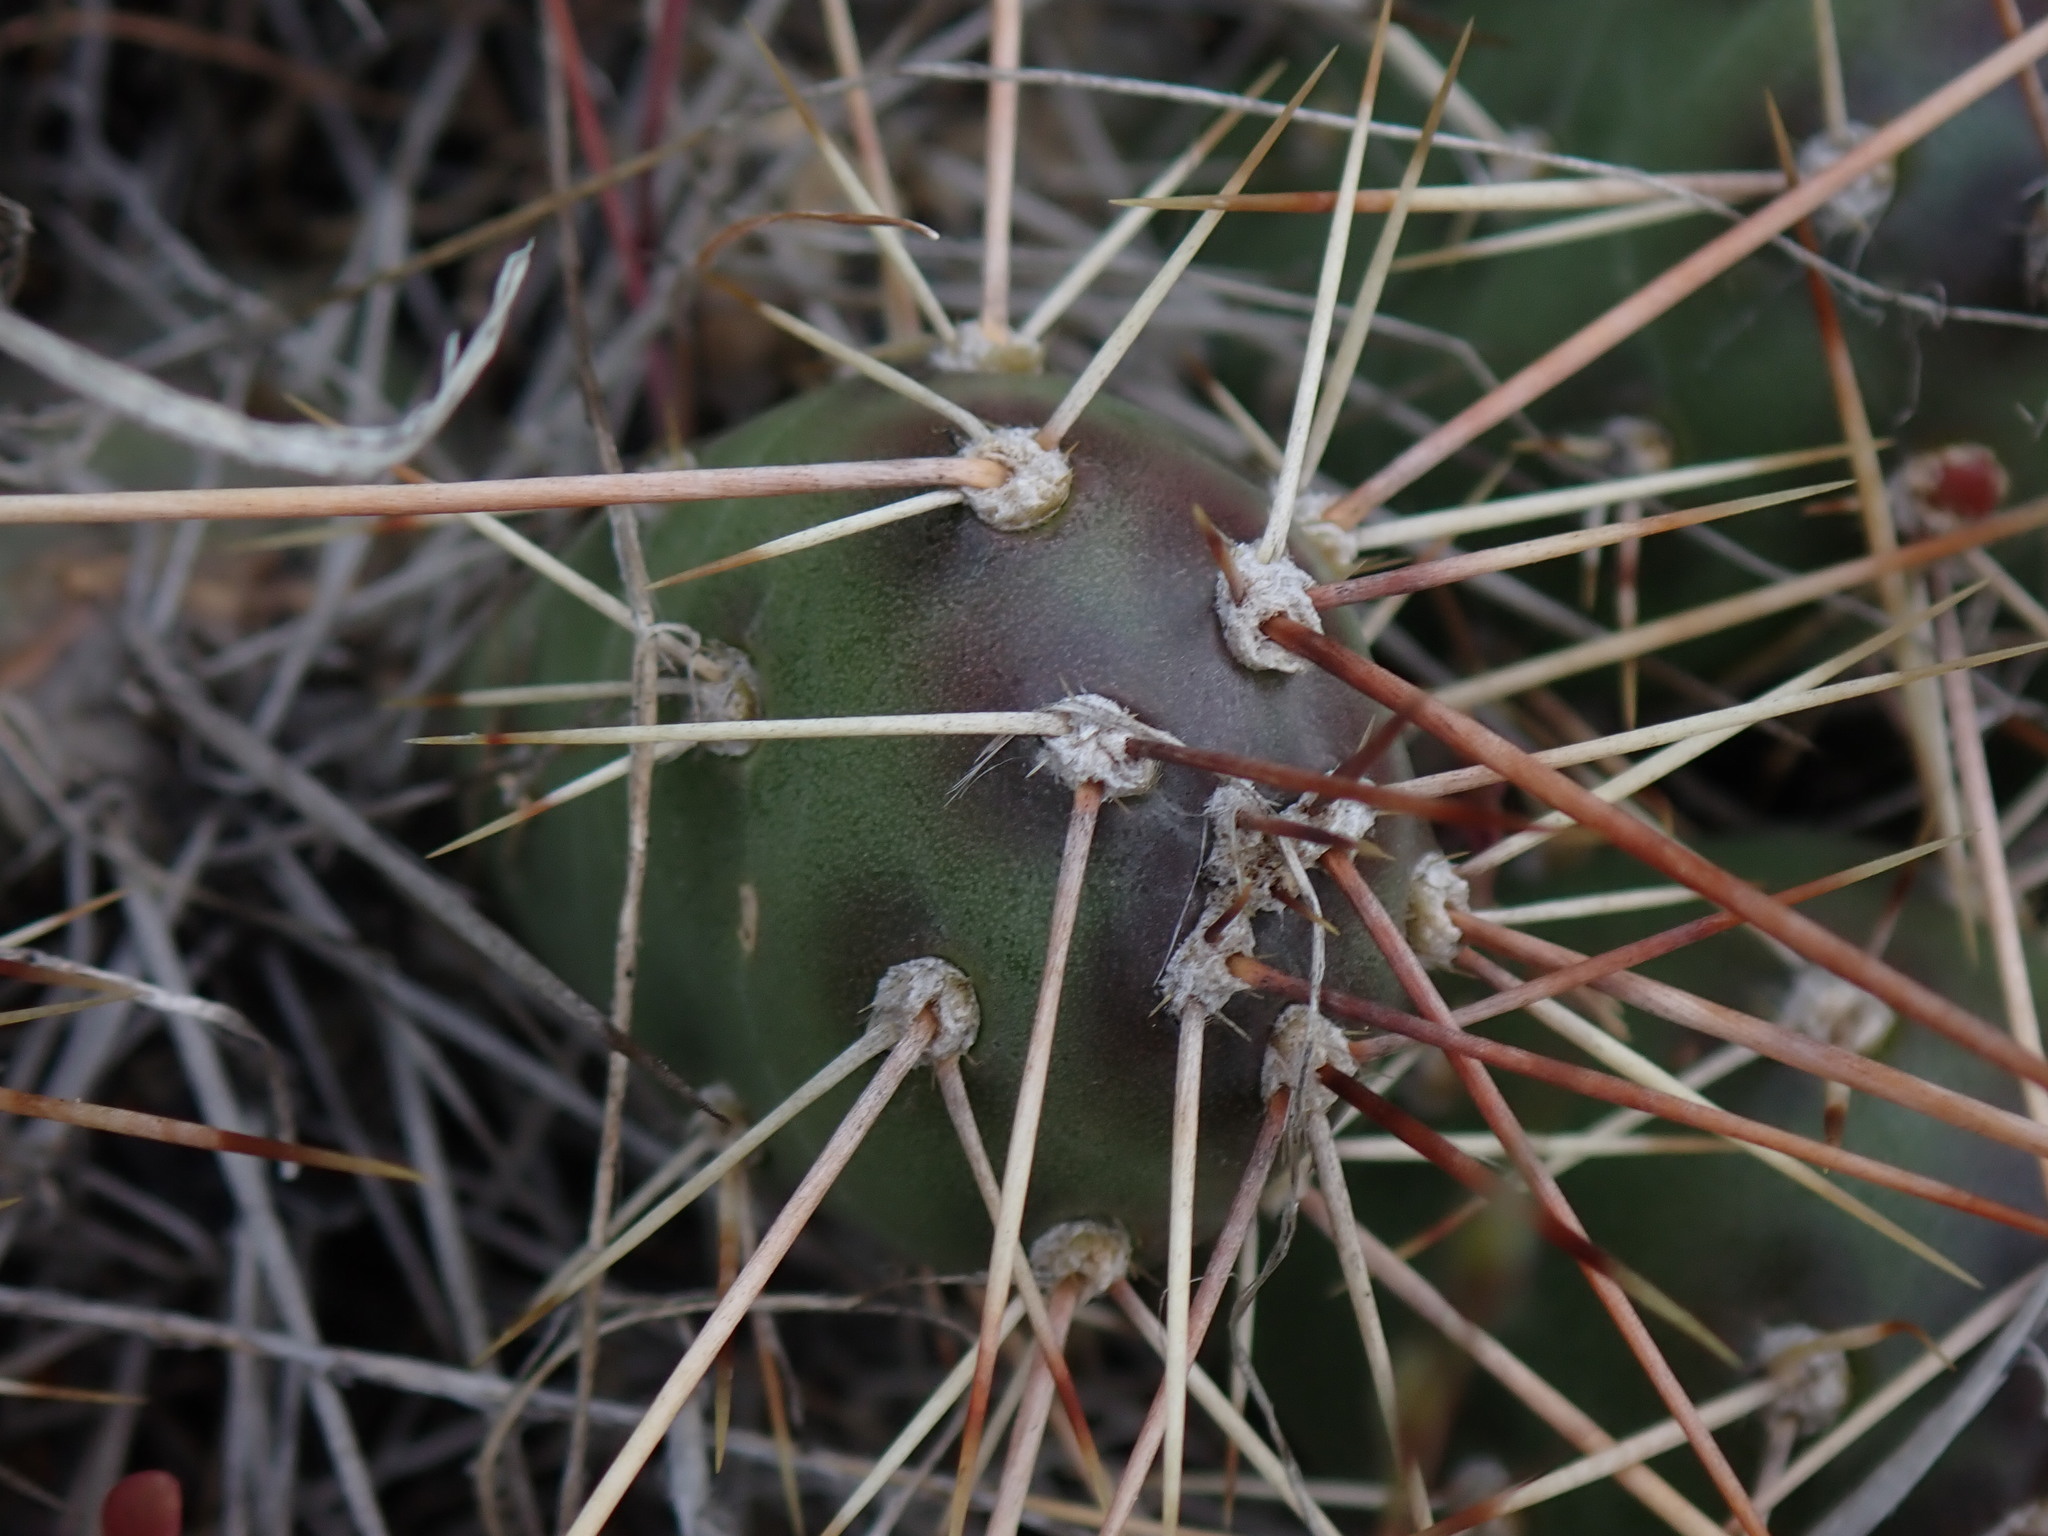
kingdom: Plantae
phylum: Tracheophyta
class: Magnoliopsida
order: Caryophyllales
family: Cactaceae
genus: Opuntia
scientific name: Opuntia fragilis
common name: Brittle cactus
